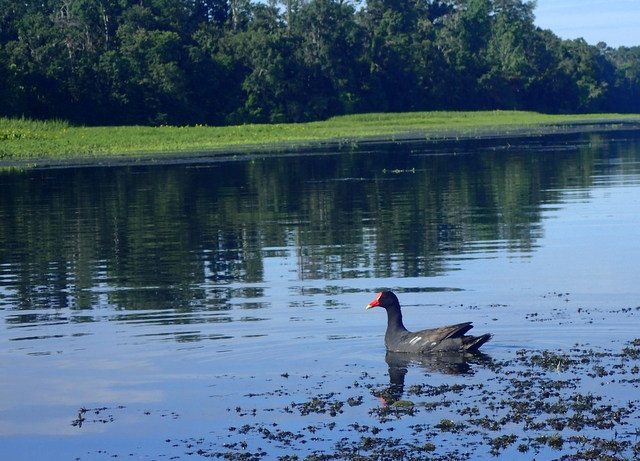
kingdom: Animalia
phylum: Chordata
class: Aves
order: Gruiformes
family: Rallidae
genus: Gallinula
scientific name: Gallinula chloropus
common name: Common moorhen
